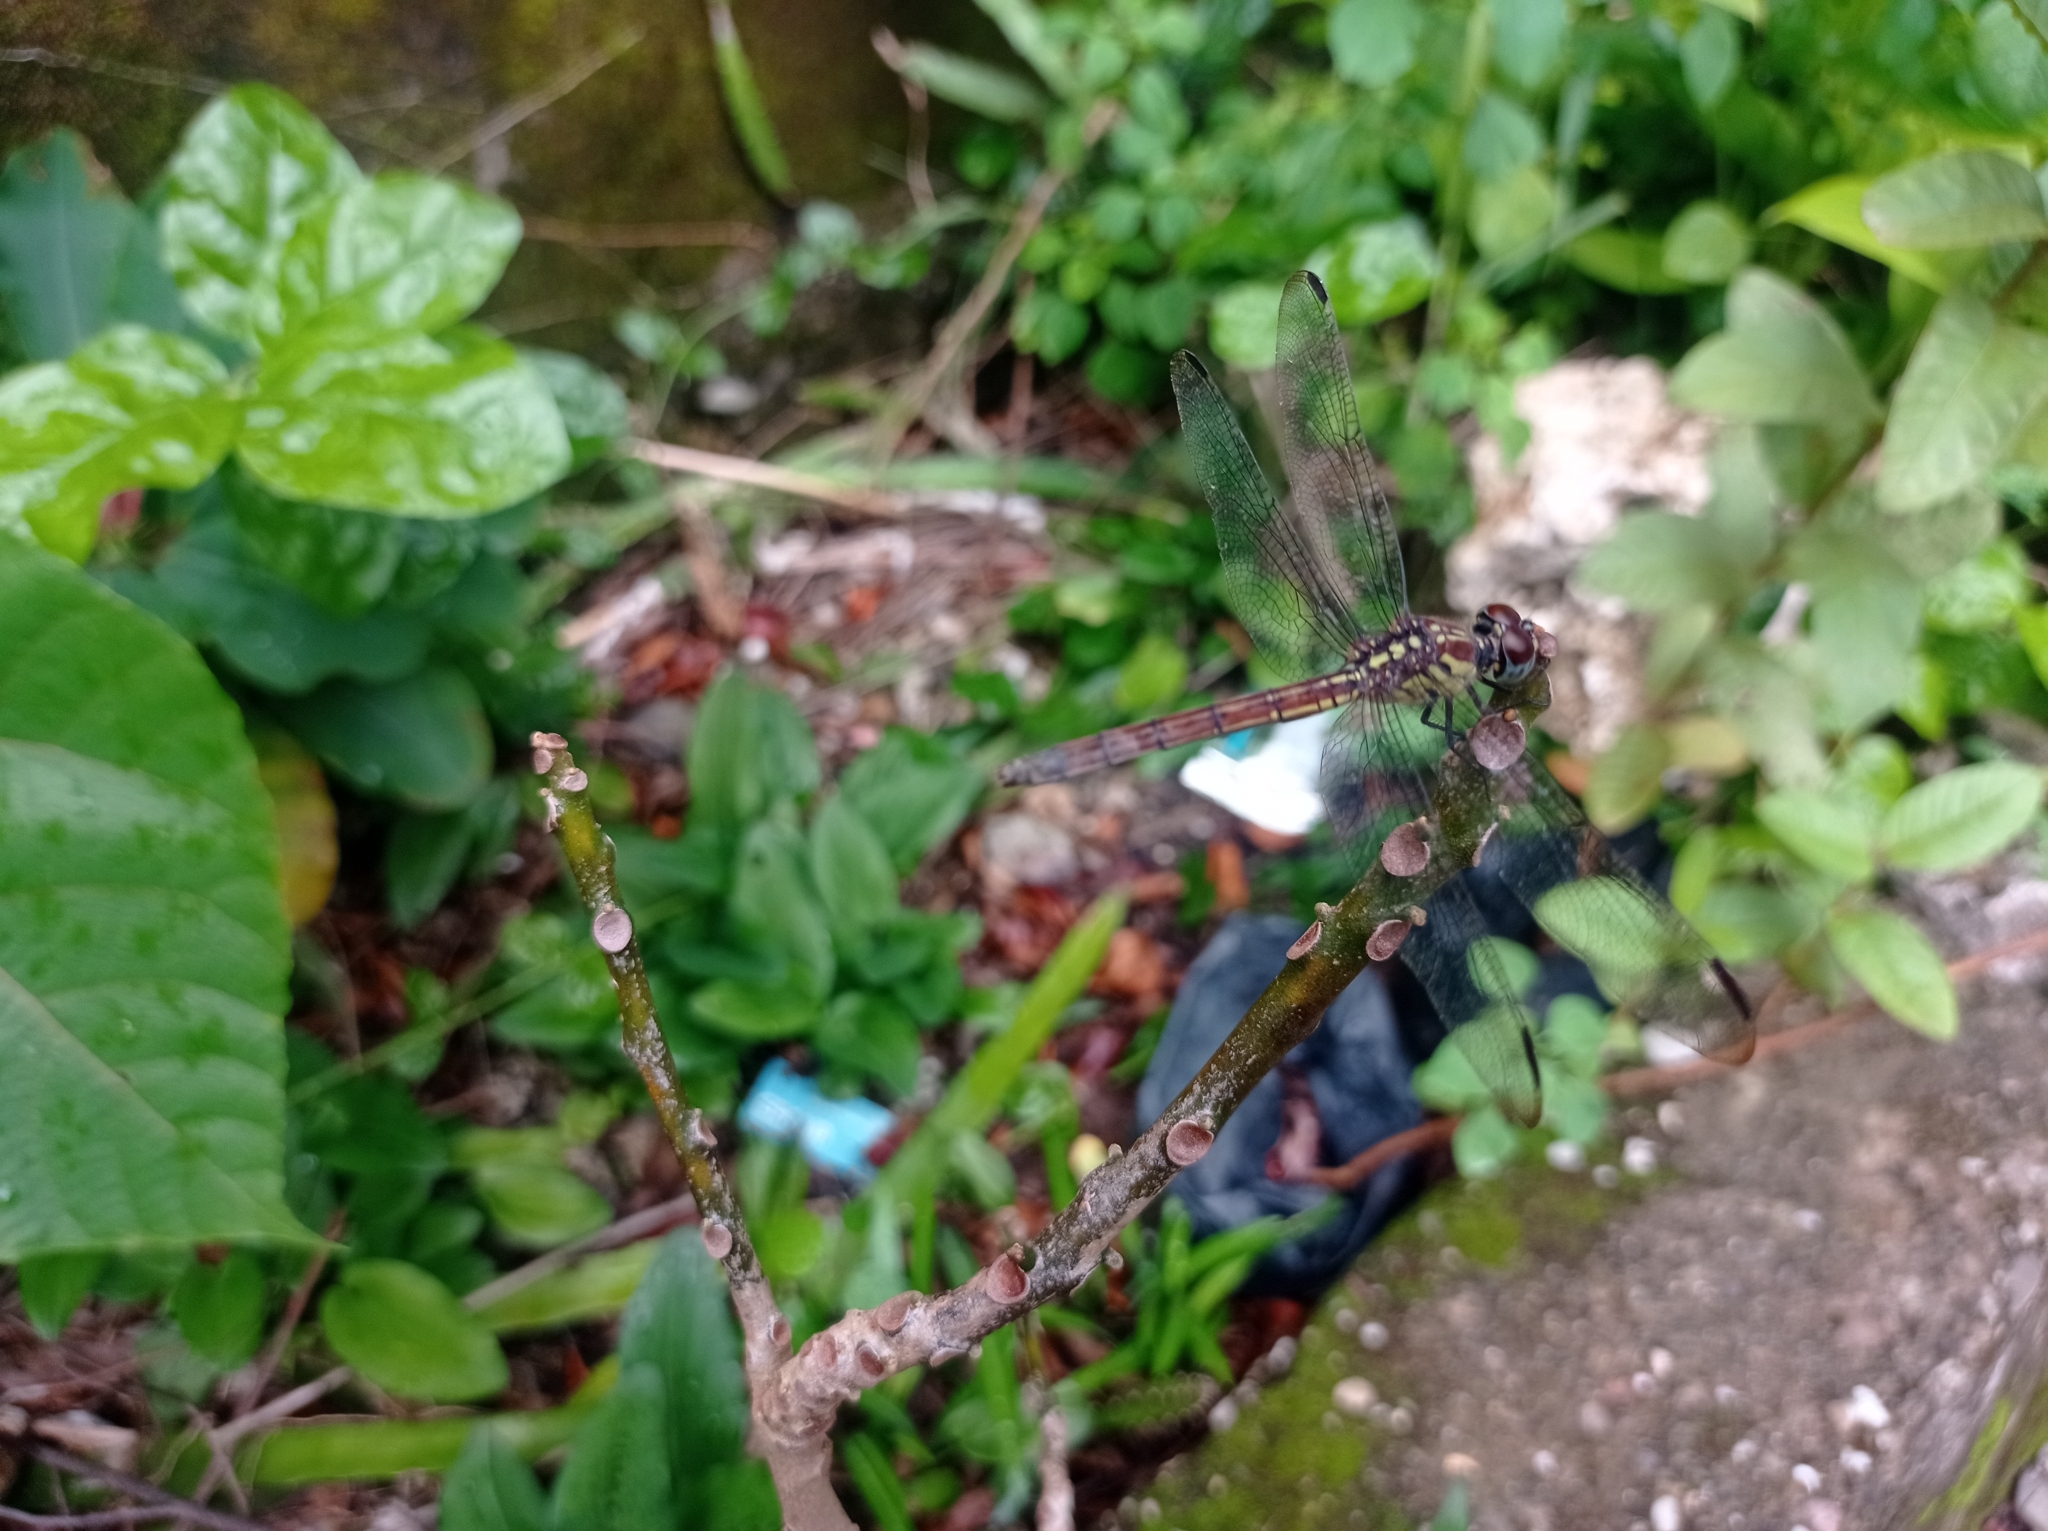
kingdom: Animalia
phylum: Arthropoda
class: Insecta
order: Odonata
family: Libellulidae
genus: Lathrecista
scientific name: Lathrecista asiatica
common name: Scarlet grenadier
